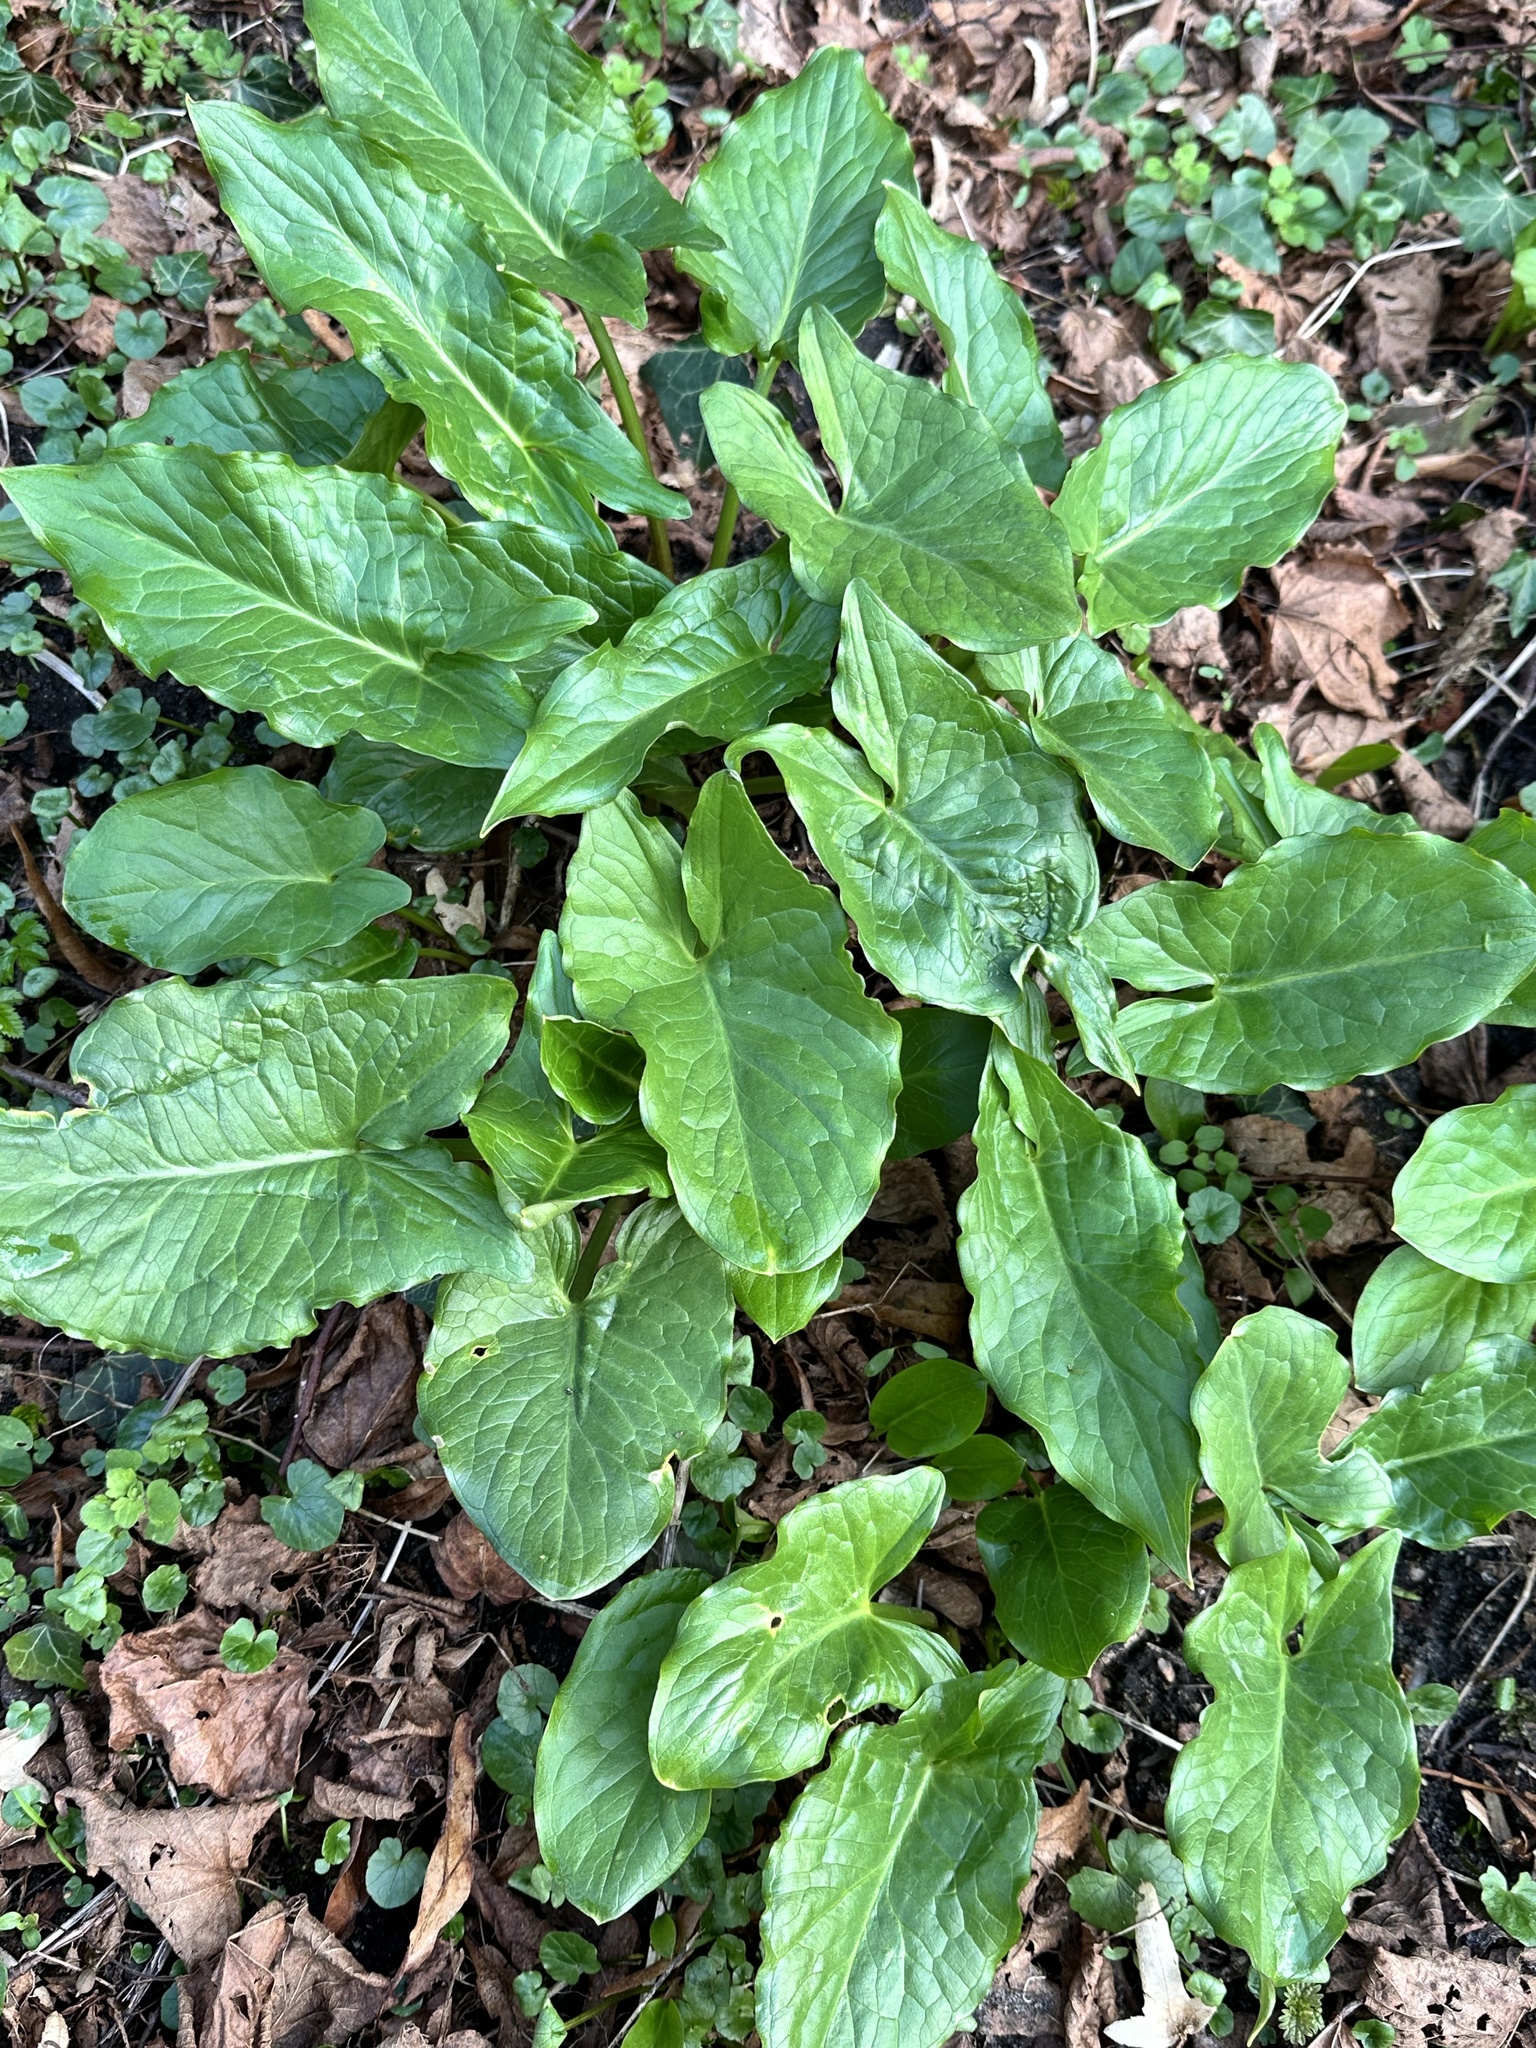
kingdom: Plantae
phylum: Tracheophyta
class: Liliopsida
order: Alismatales
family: Araceae
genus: Arum
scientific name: Arum maculatum
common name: Lords-and-ladies
